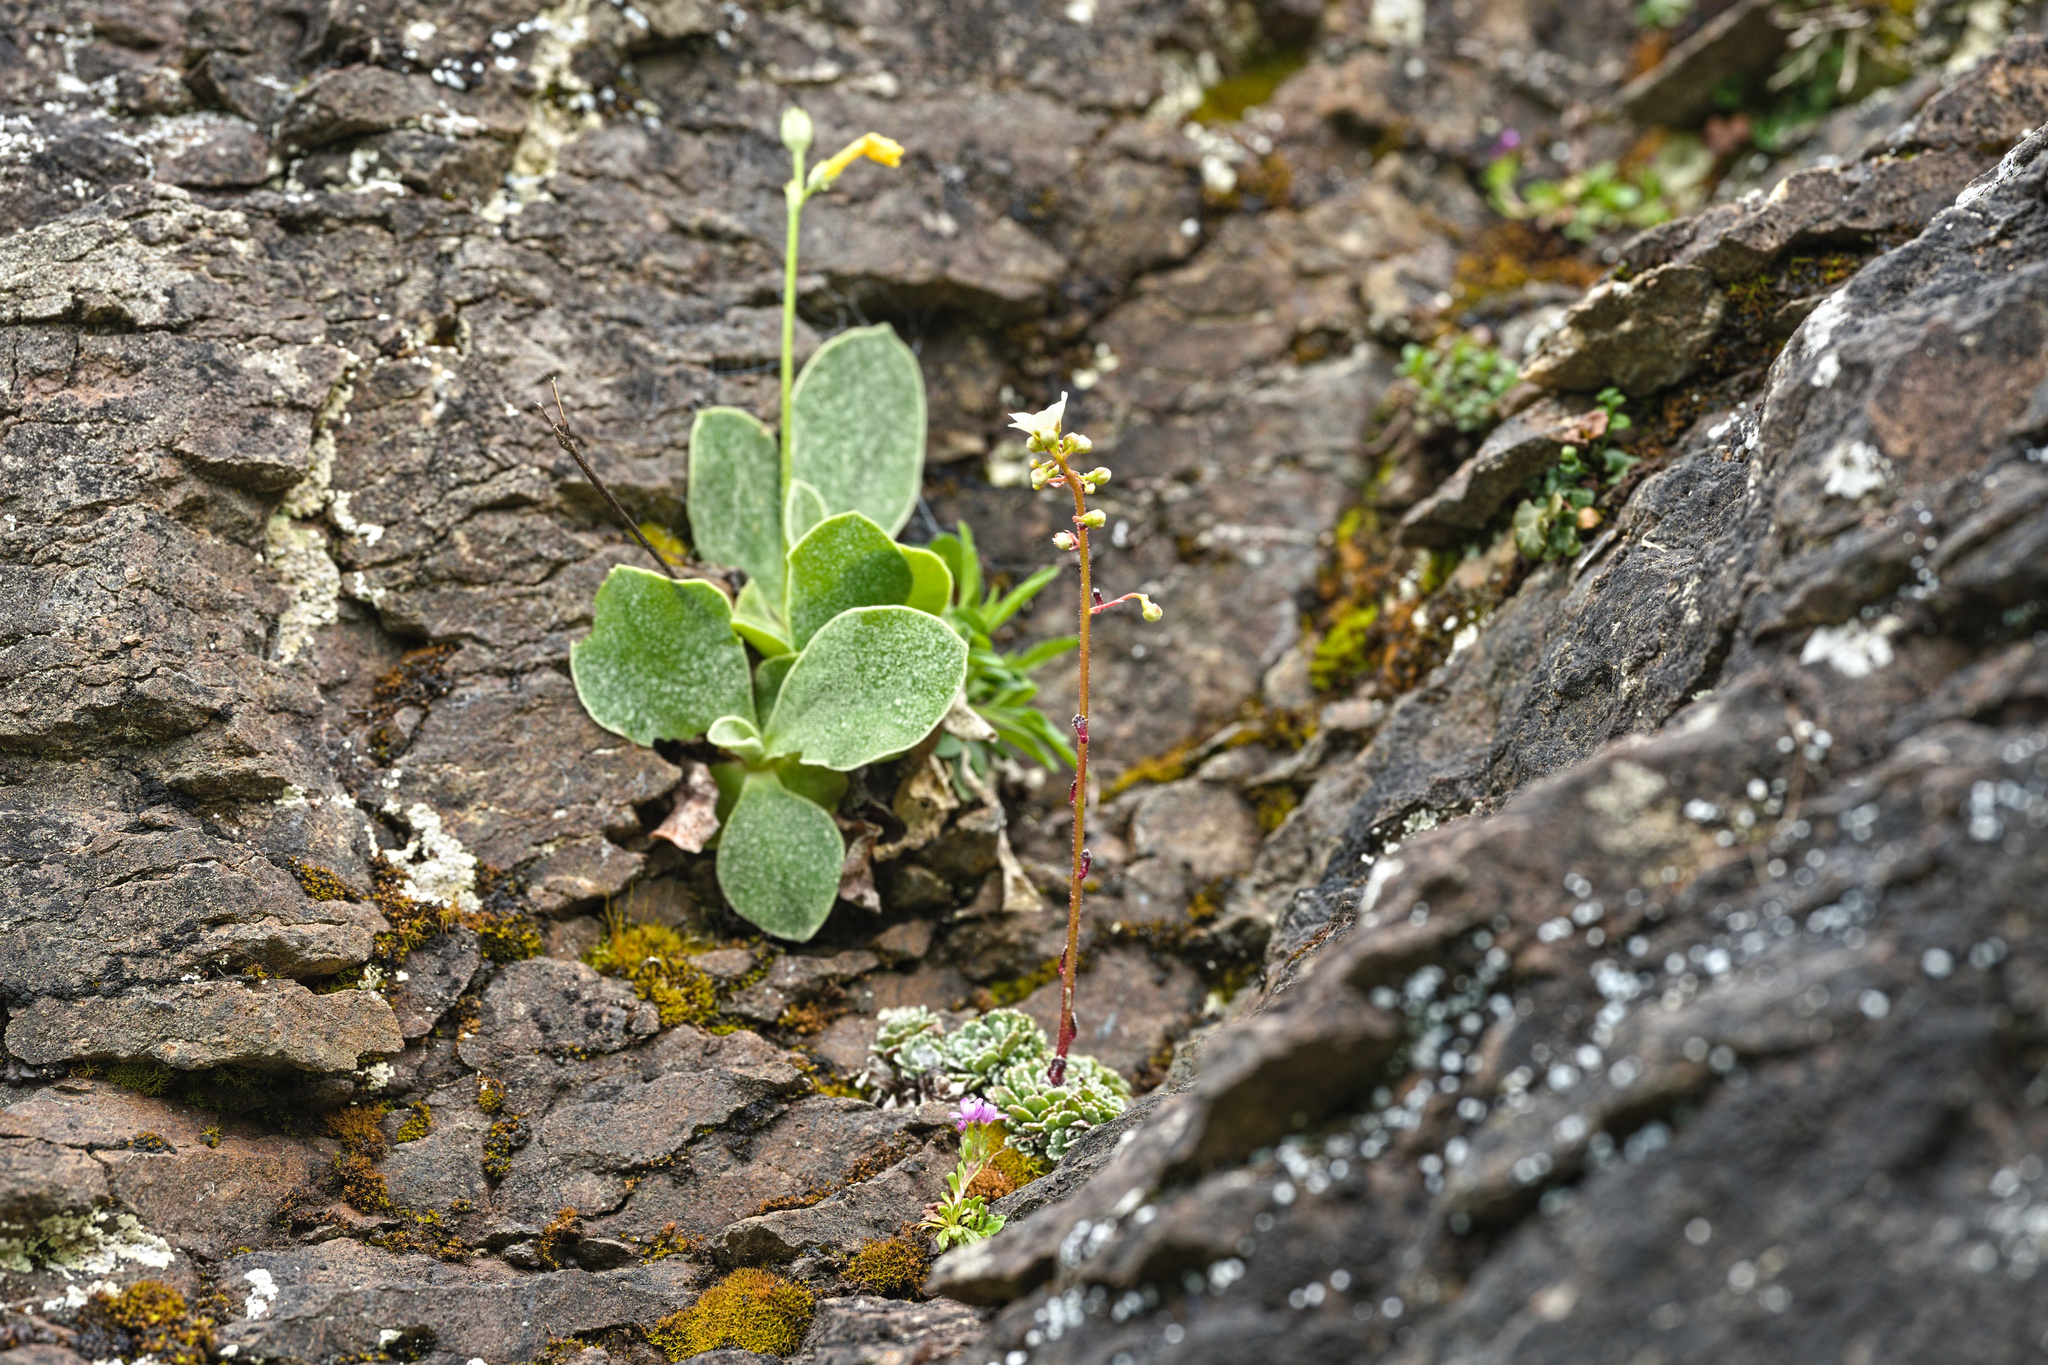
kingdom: Plantae
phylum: Tracheophyta
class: Magnoliopsida
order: Lamiales
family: Plantaginaceae
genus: Erinus
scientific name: Erinus alpinus
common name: Fairy foxglove
